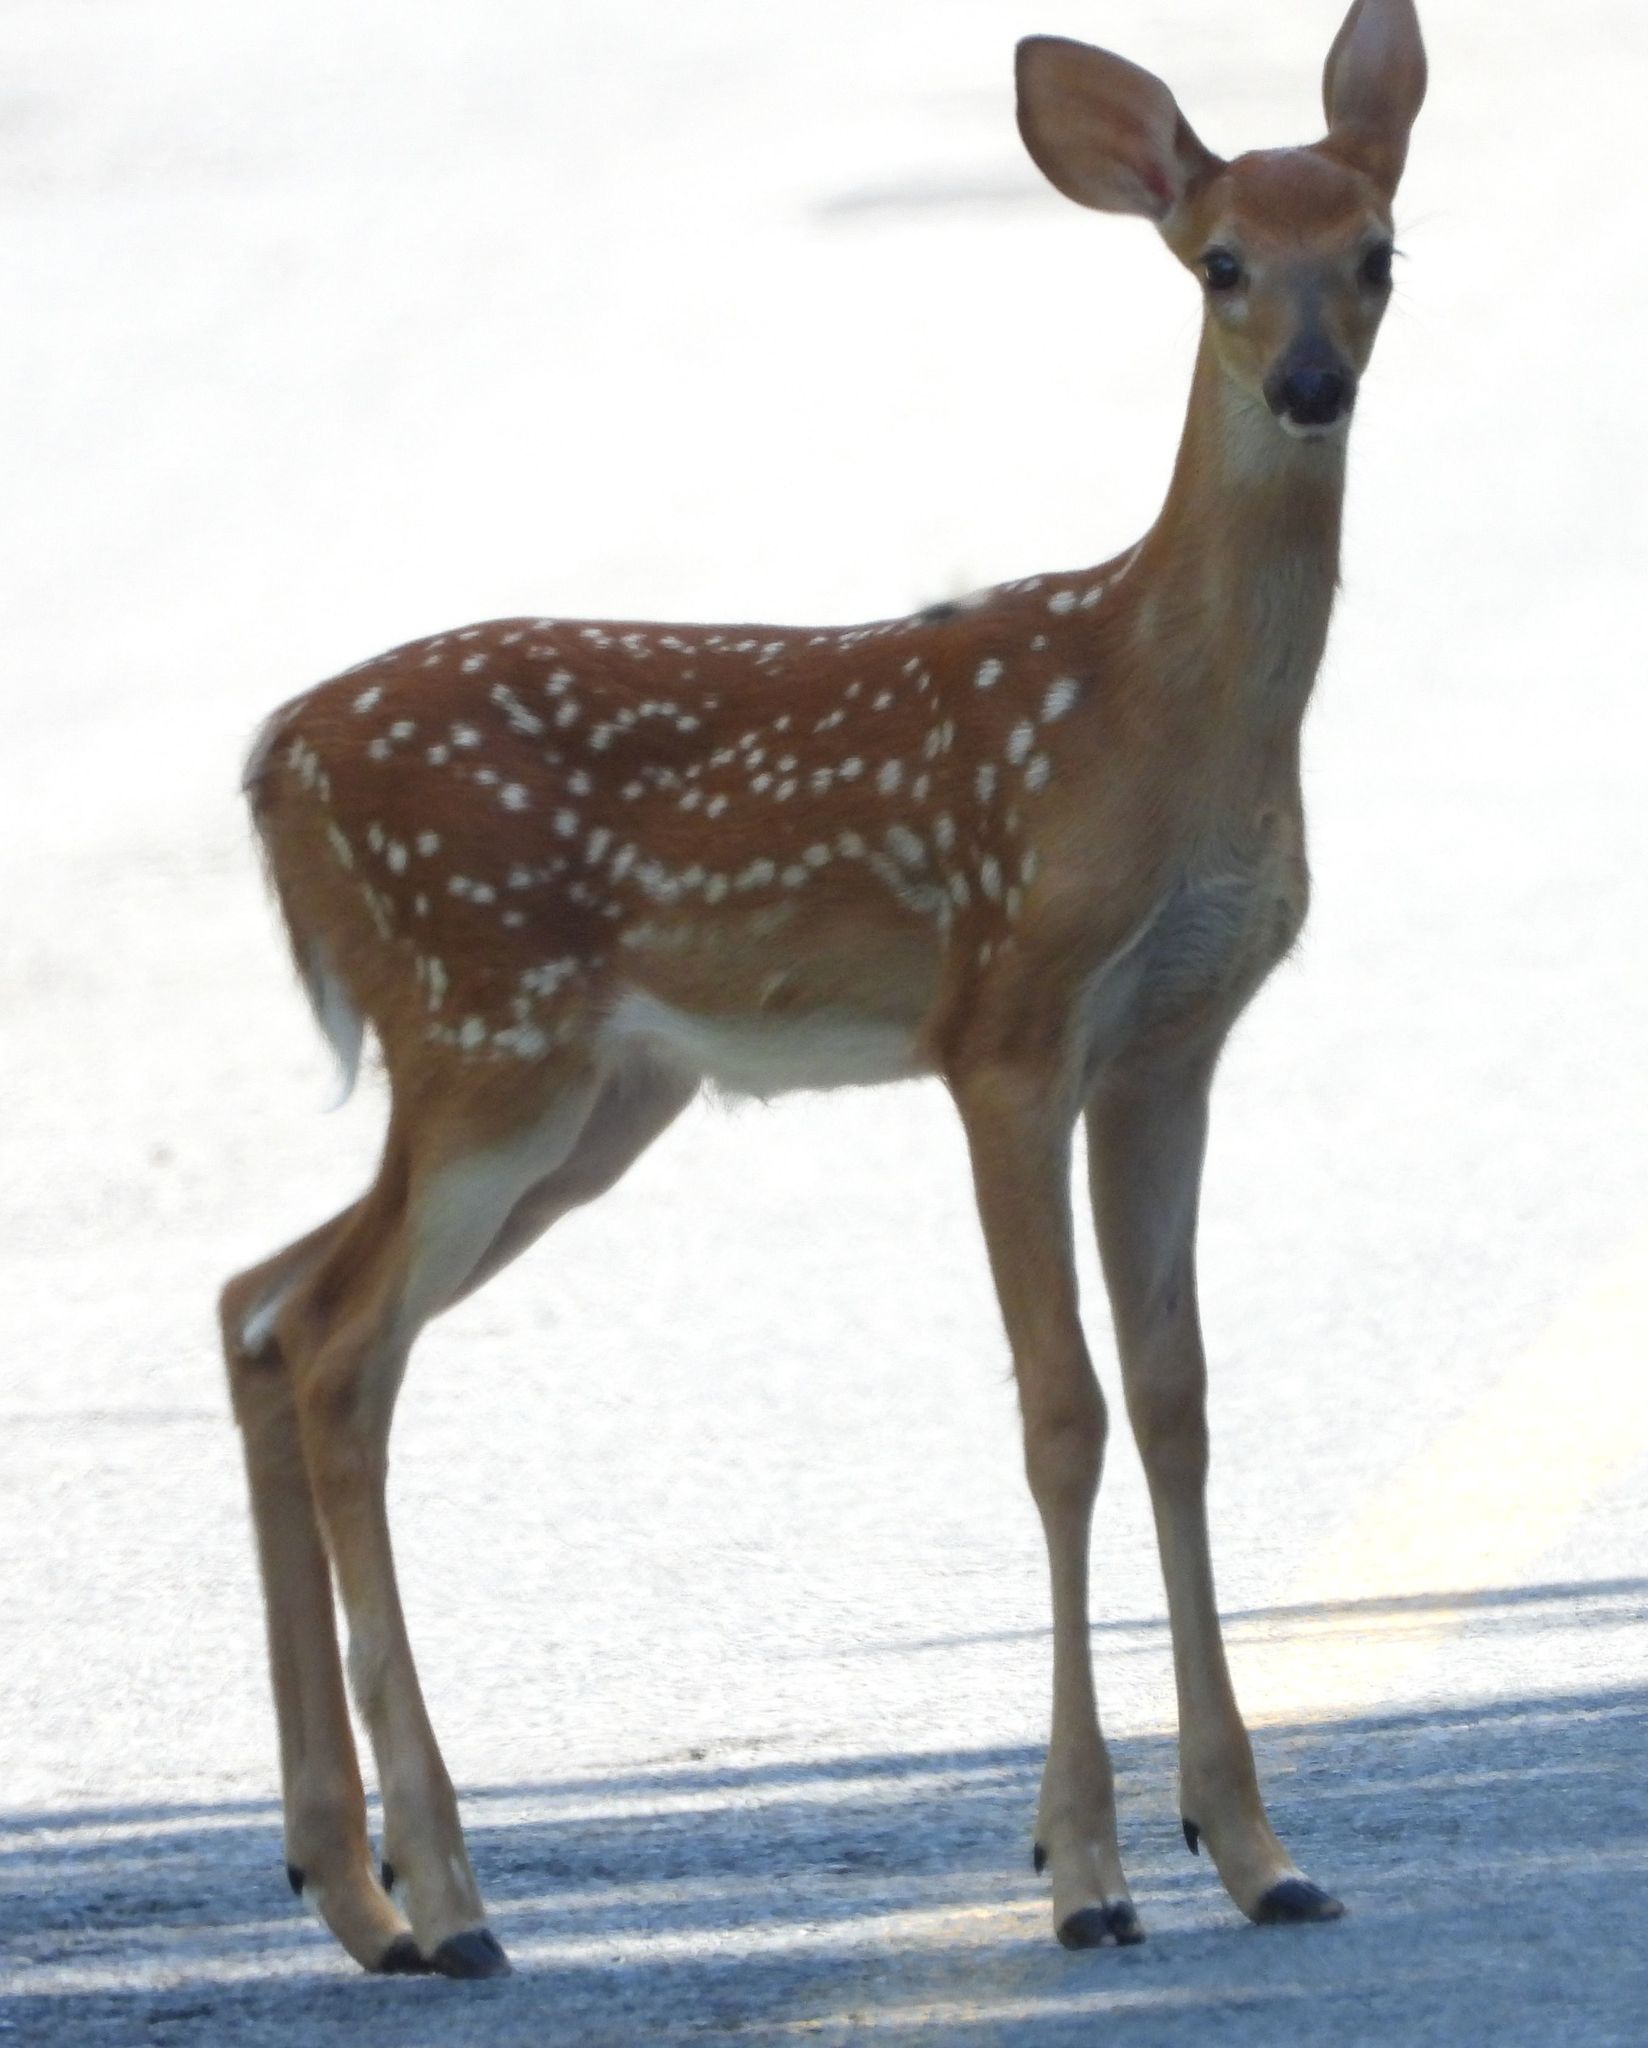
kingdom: Animalia
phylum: Chordata
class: Mammalia
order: Artiodactyla
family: Cervidae
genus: Odocoileus
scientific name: Odocoileus virginianus
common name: White-tailed deer
